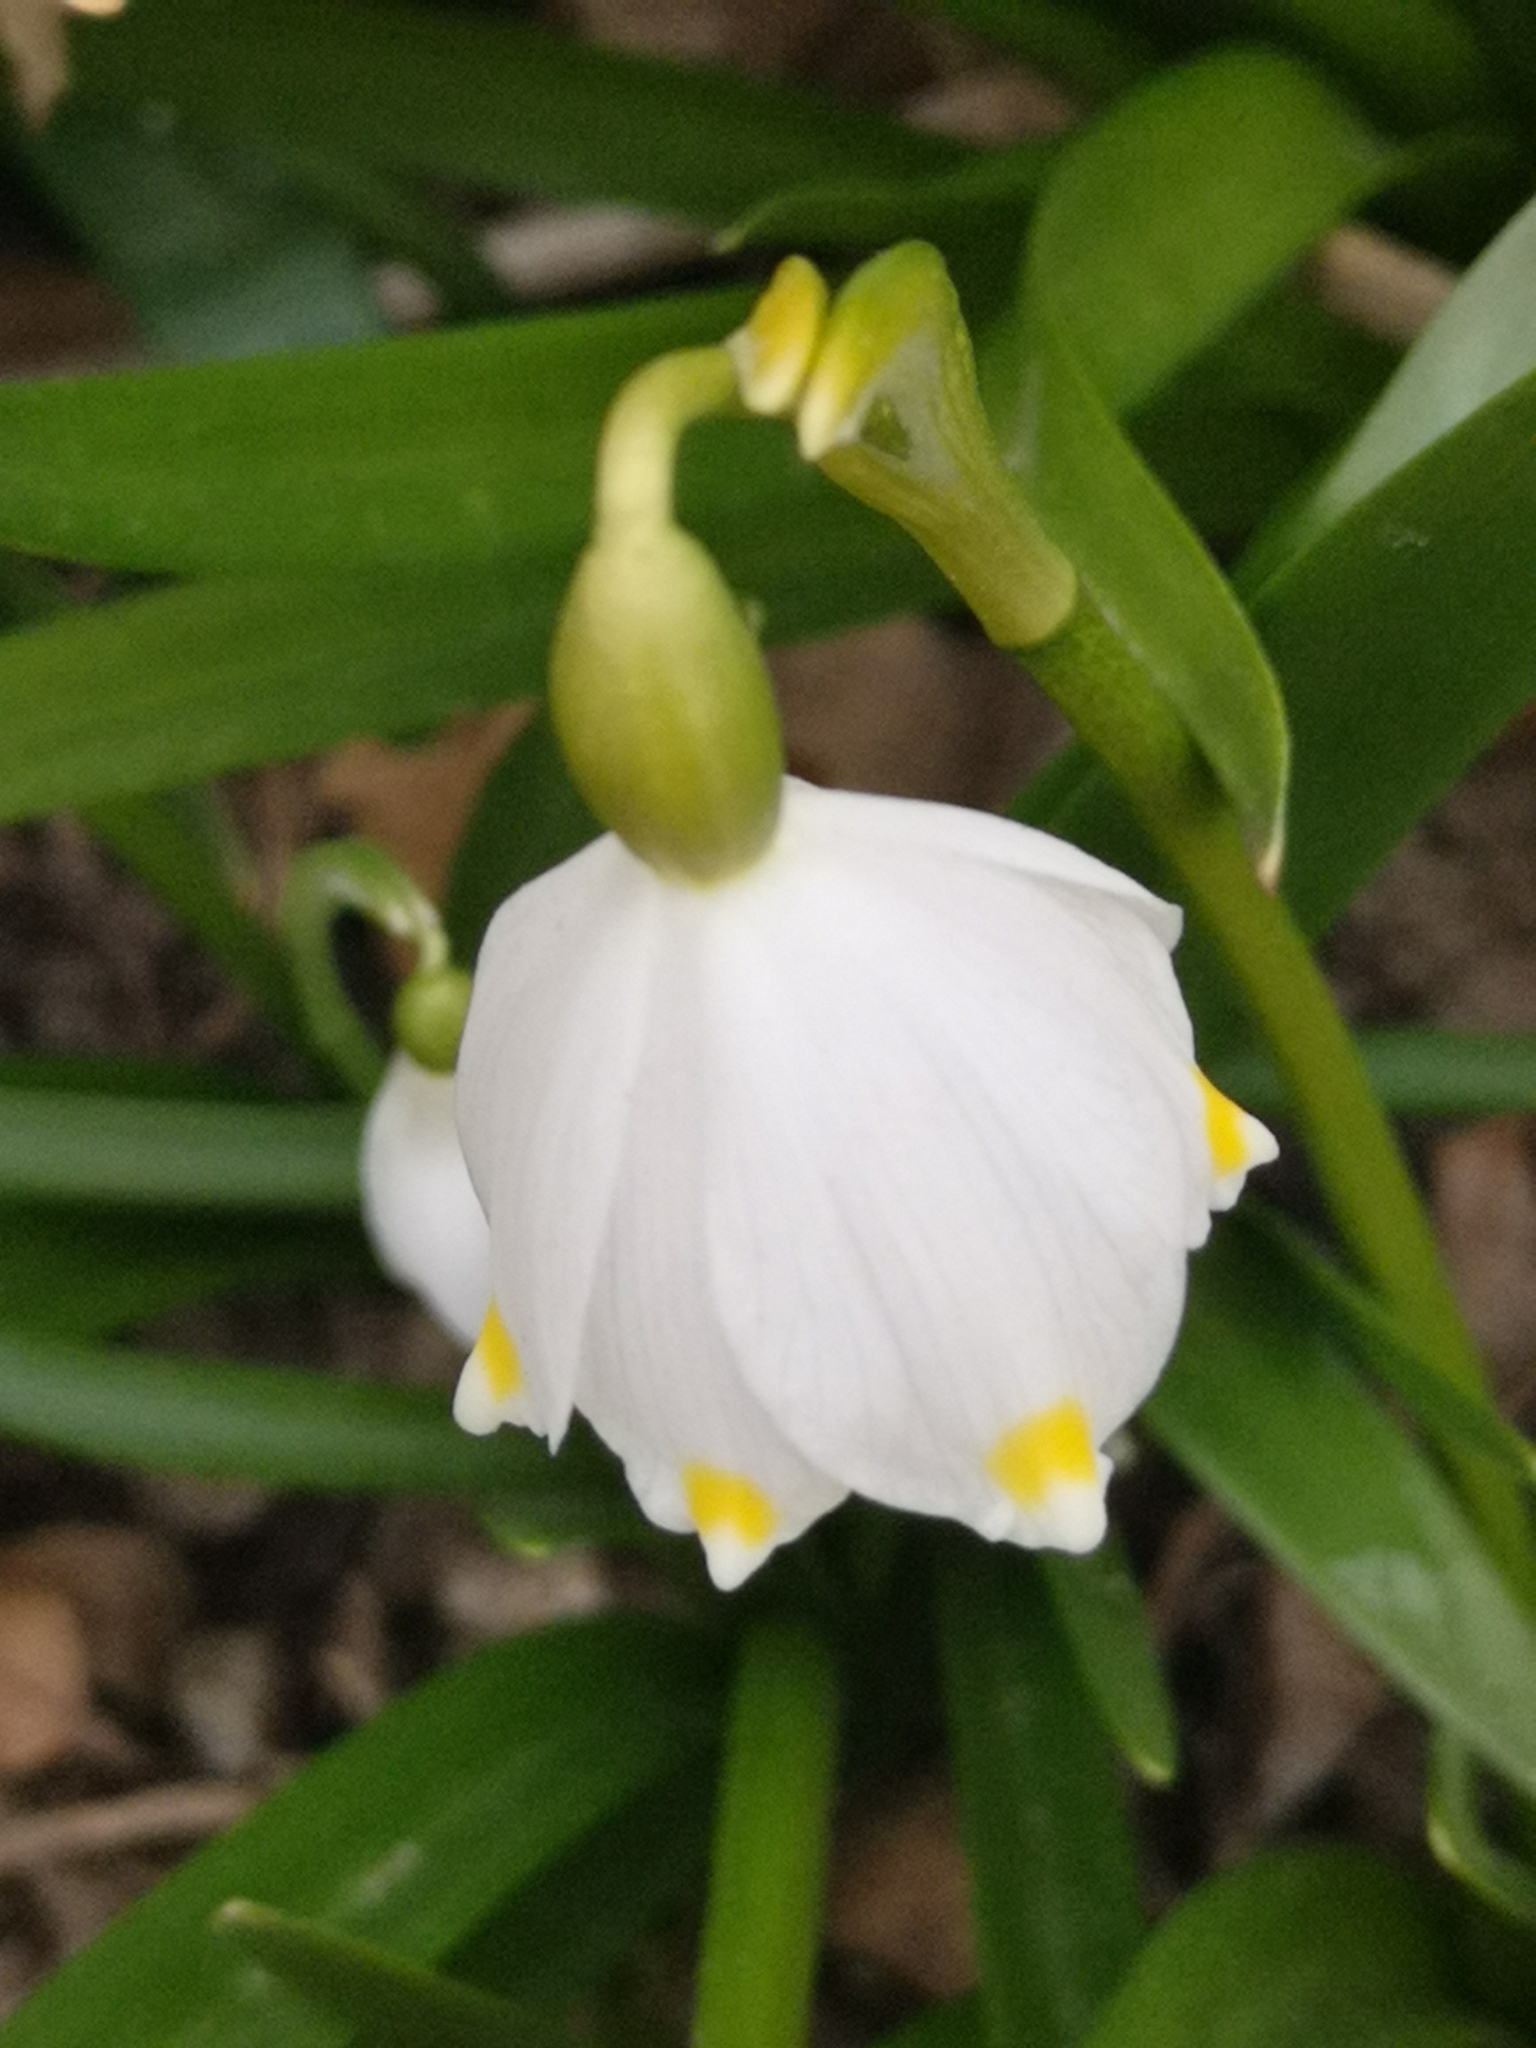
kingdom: Plantae
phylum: Tracheophyta
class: Liliopsida
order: Asparagales
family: Amaryllidaceae
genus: Leucojum
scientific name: Leucojum vernum
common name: Spring snowflake
